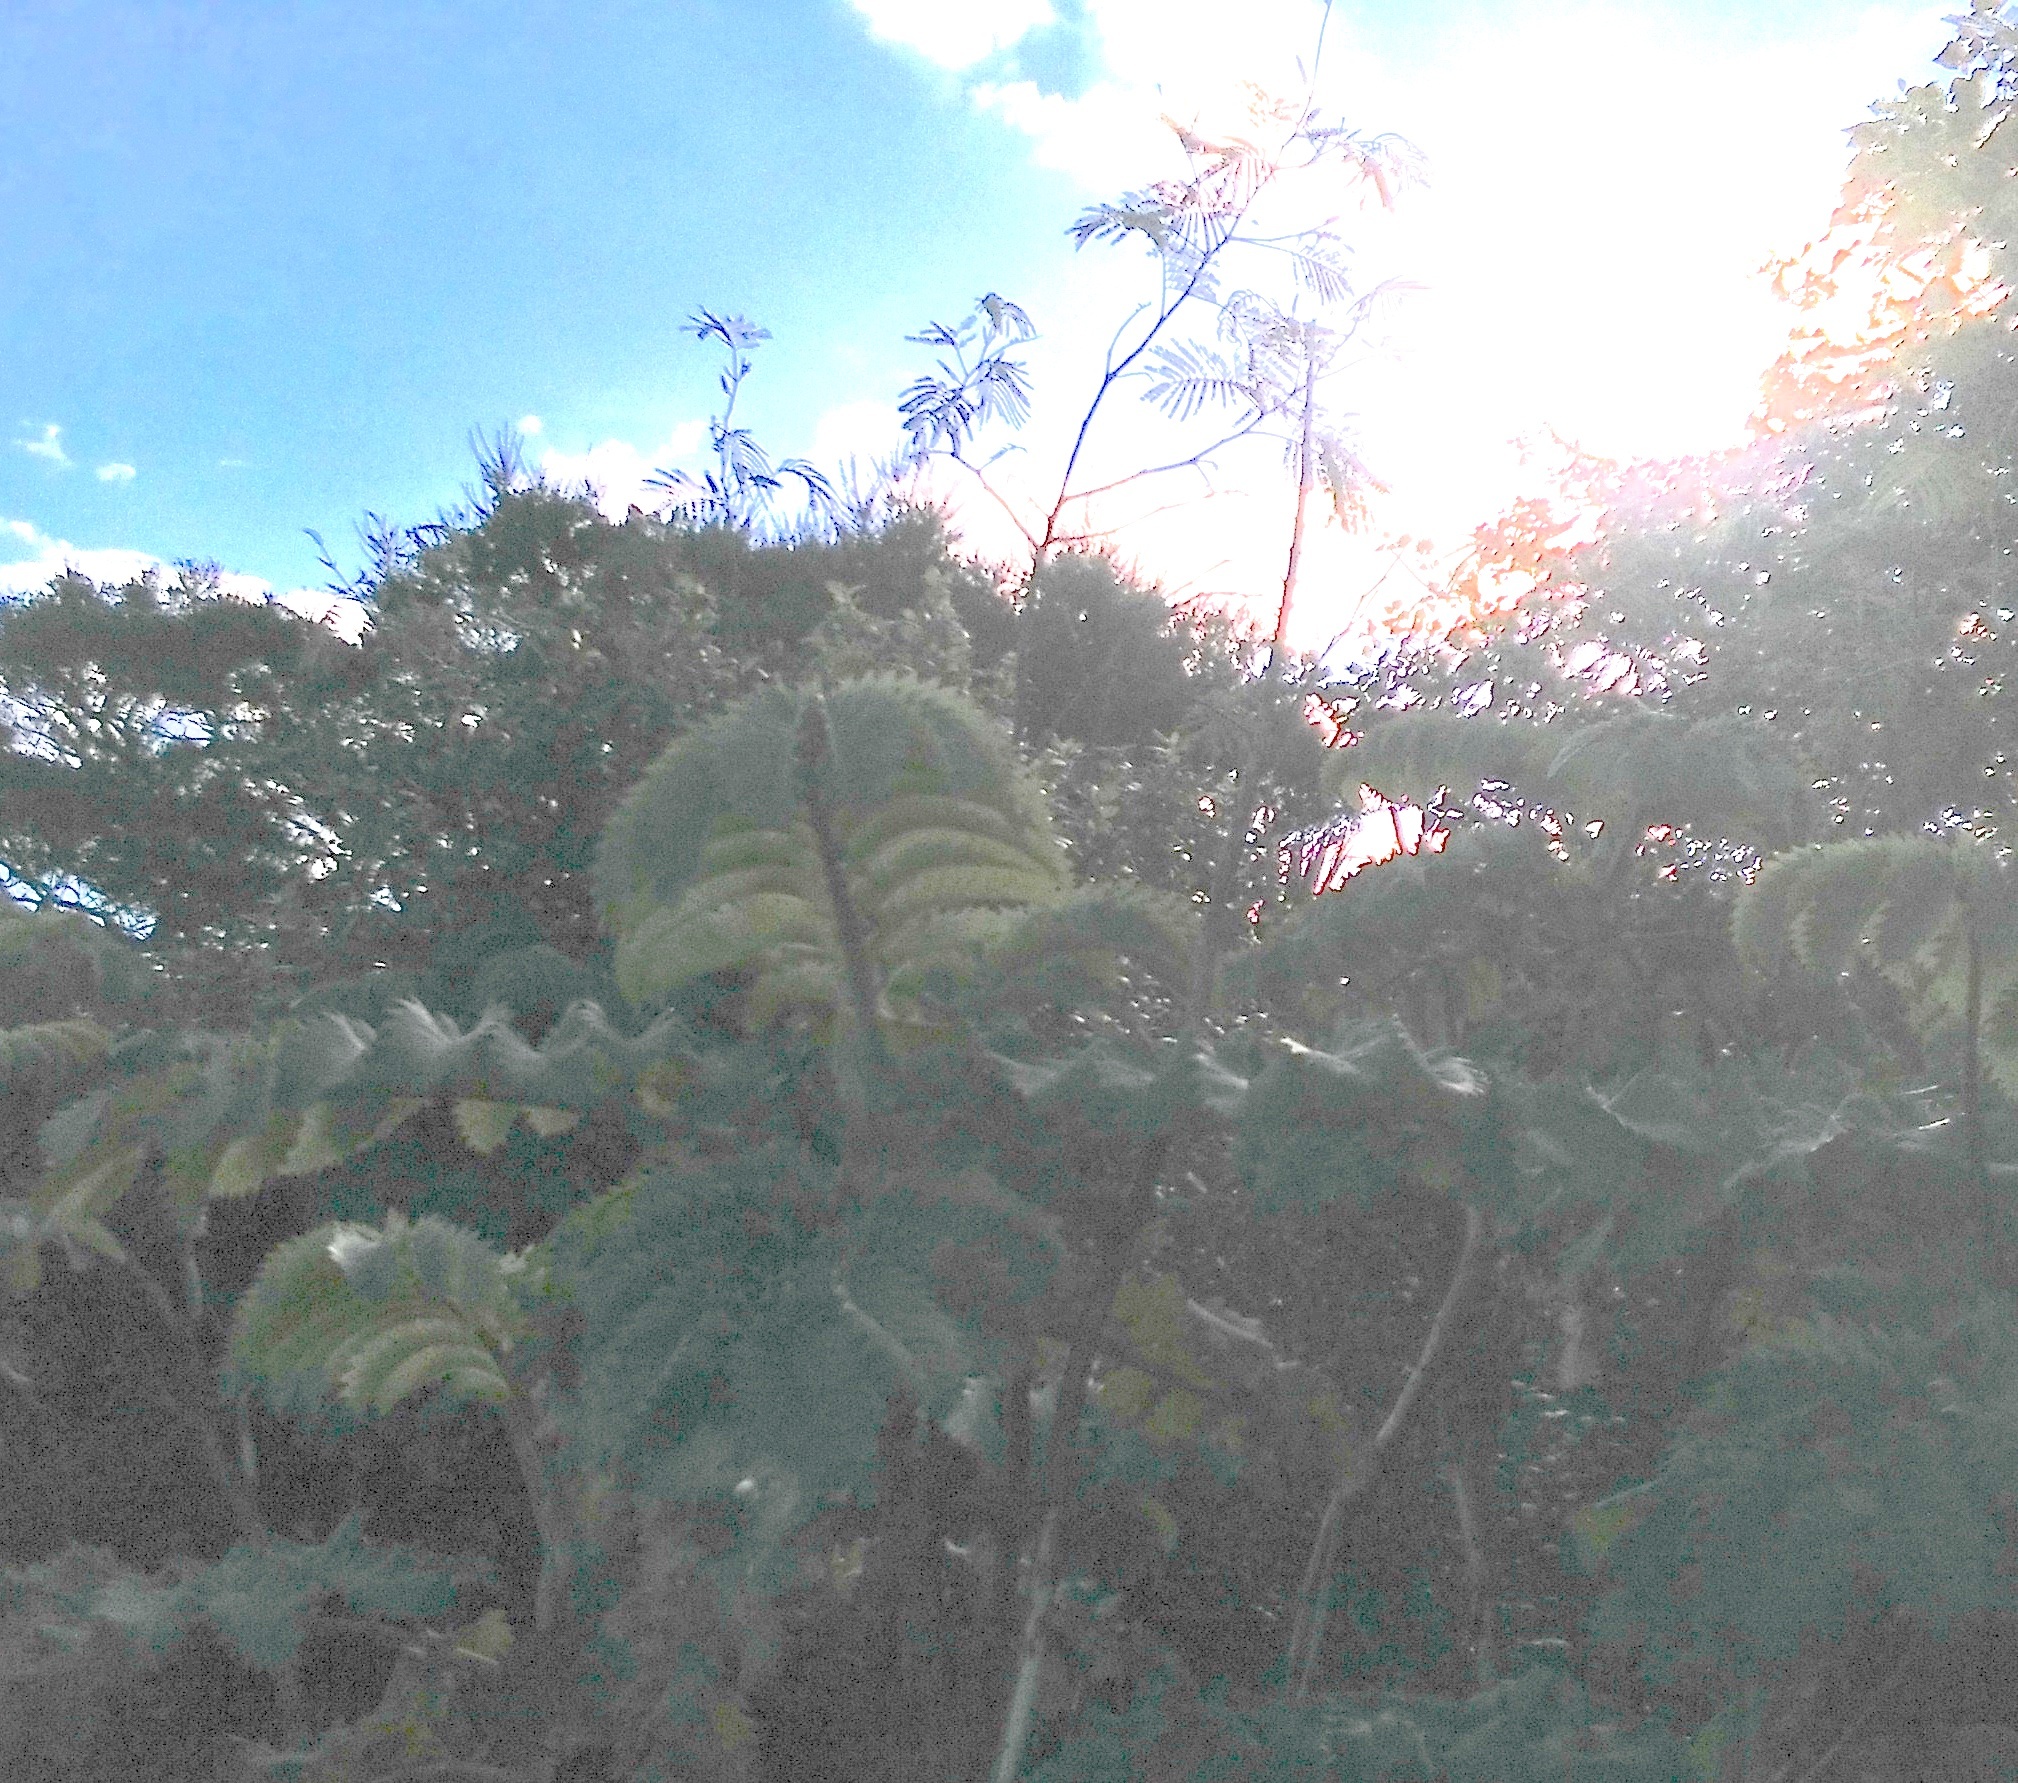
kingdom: Plantae
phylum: Tracheophyta
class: Magnoliopsida
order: Fabales
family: Fabaceae
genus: Paraserianthes
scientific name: Paraserianthes lophantha
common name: Plume albizia
